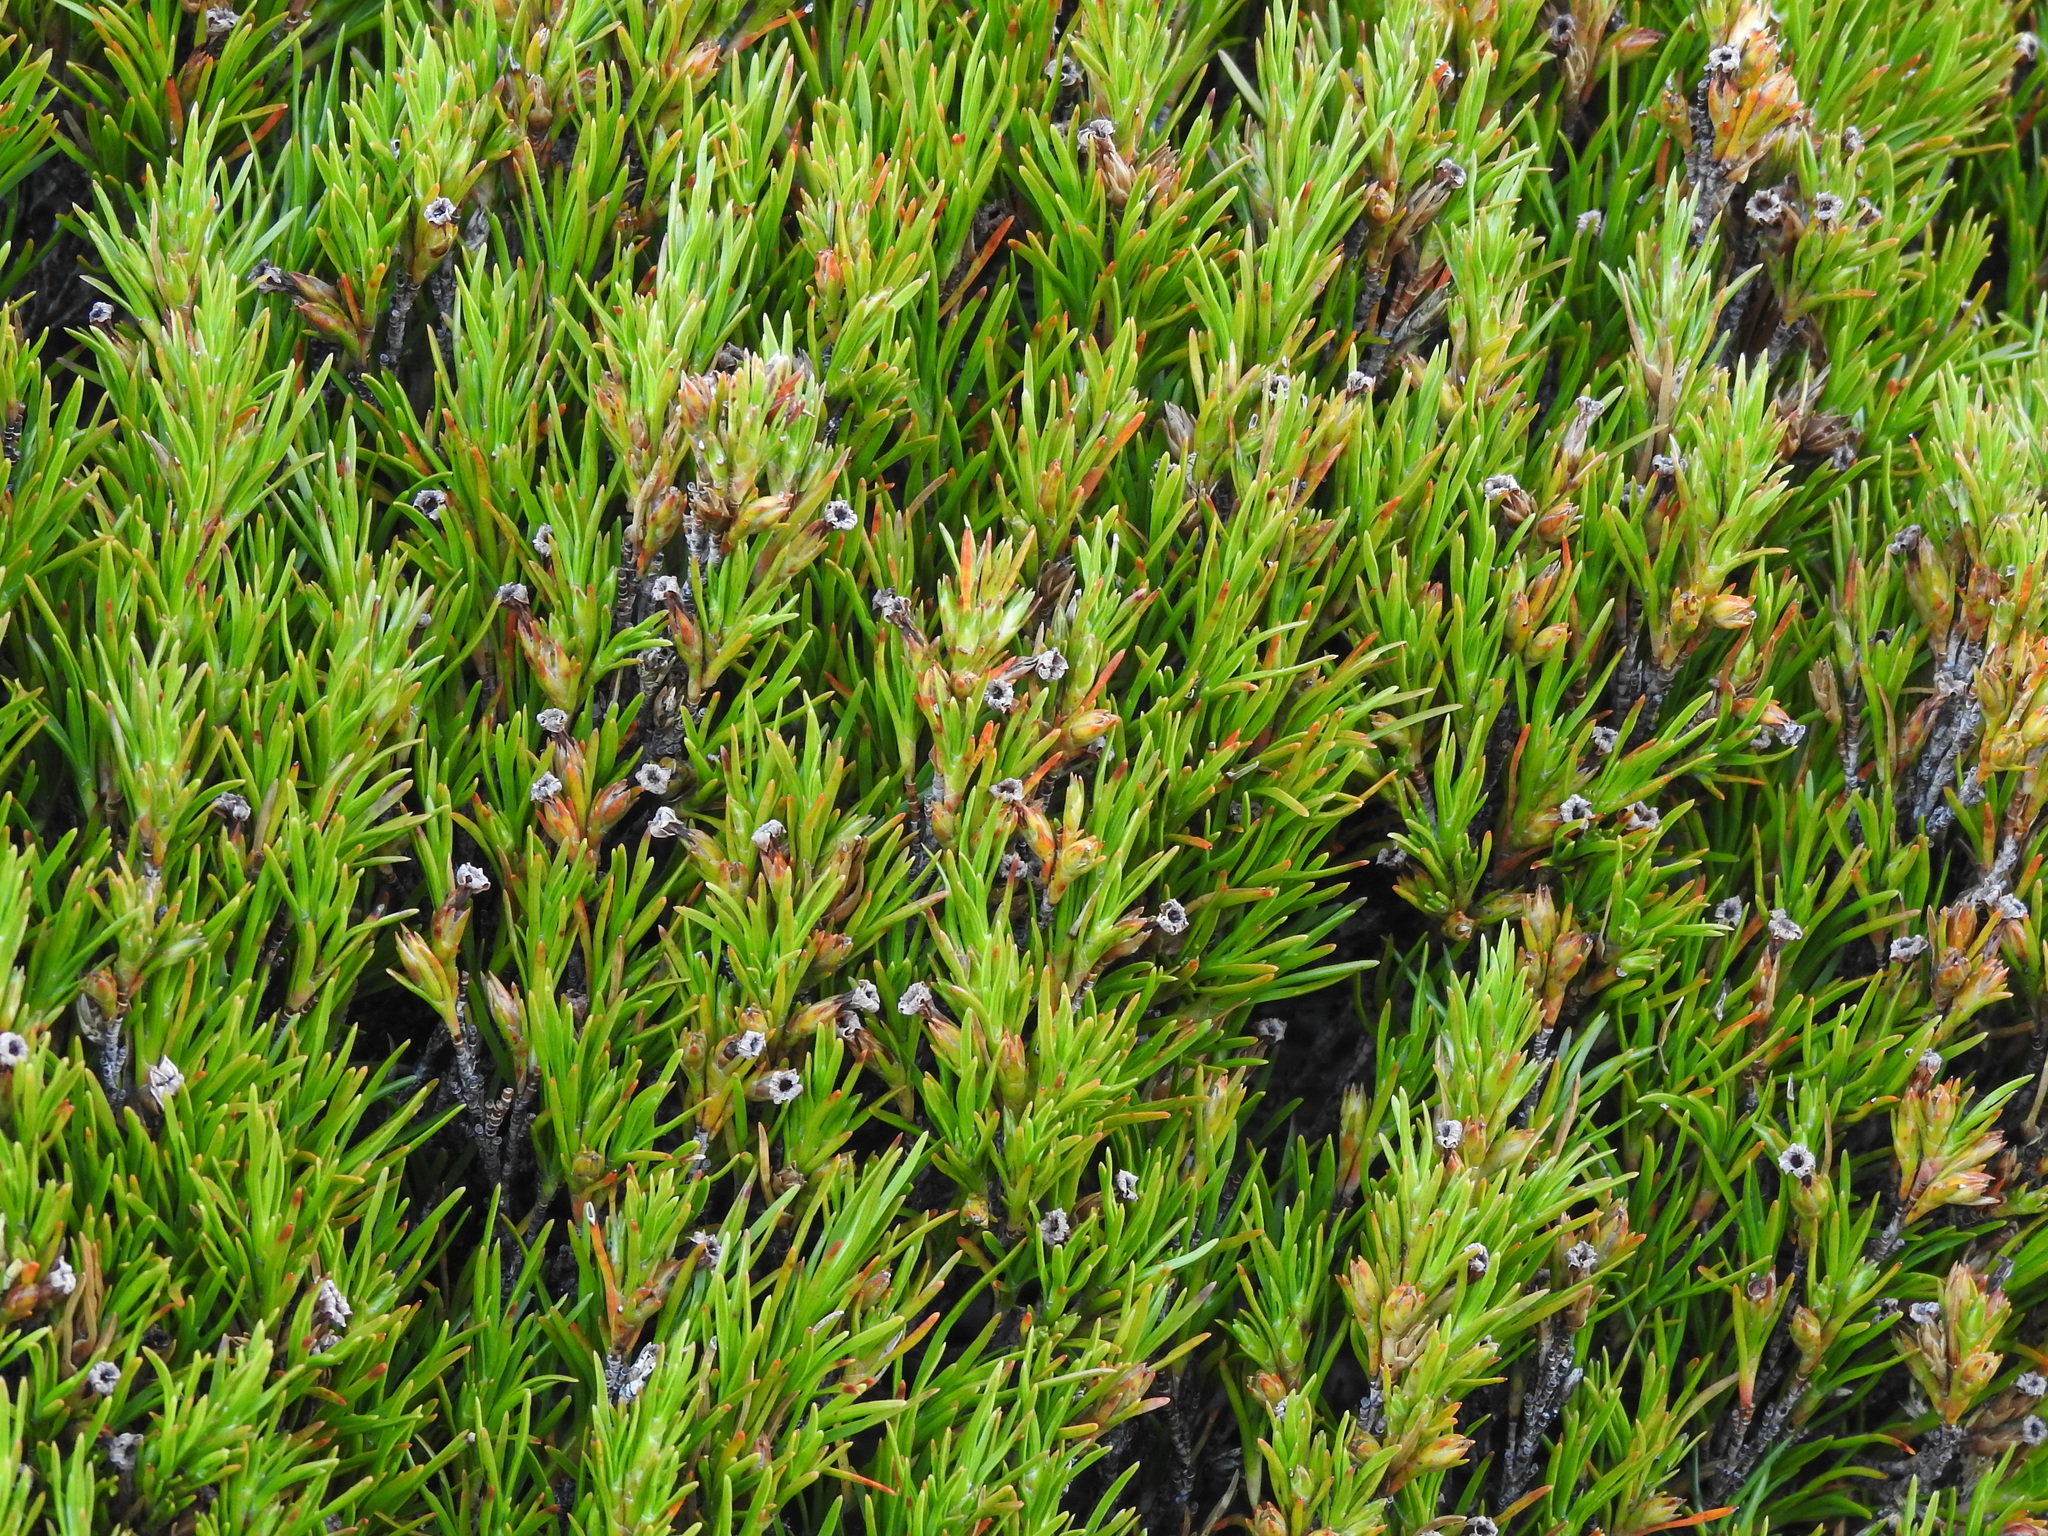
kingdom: Plantae
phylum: Tracheophyta
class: Magnoliopsida
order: Ericales
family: Ericaceae
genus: Dracophyllum
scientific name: Dracophyllum rosmarinifolium
